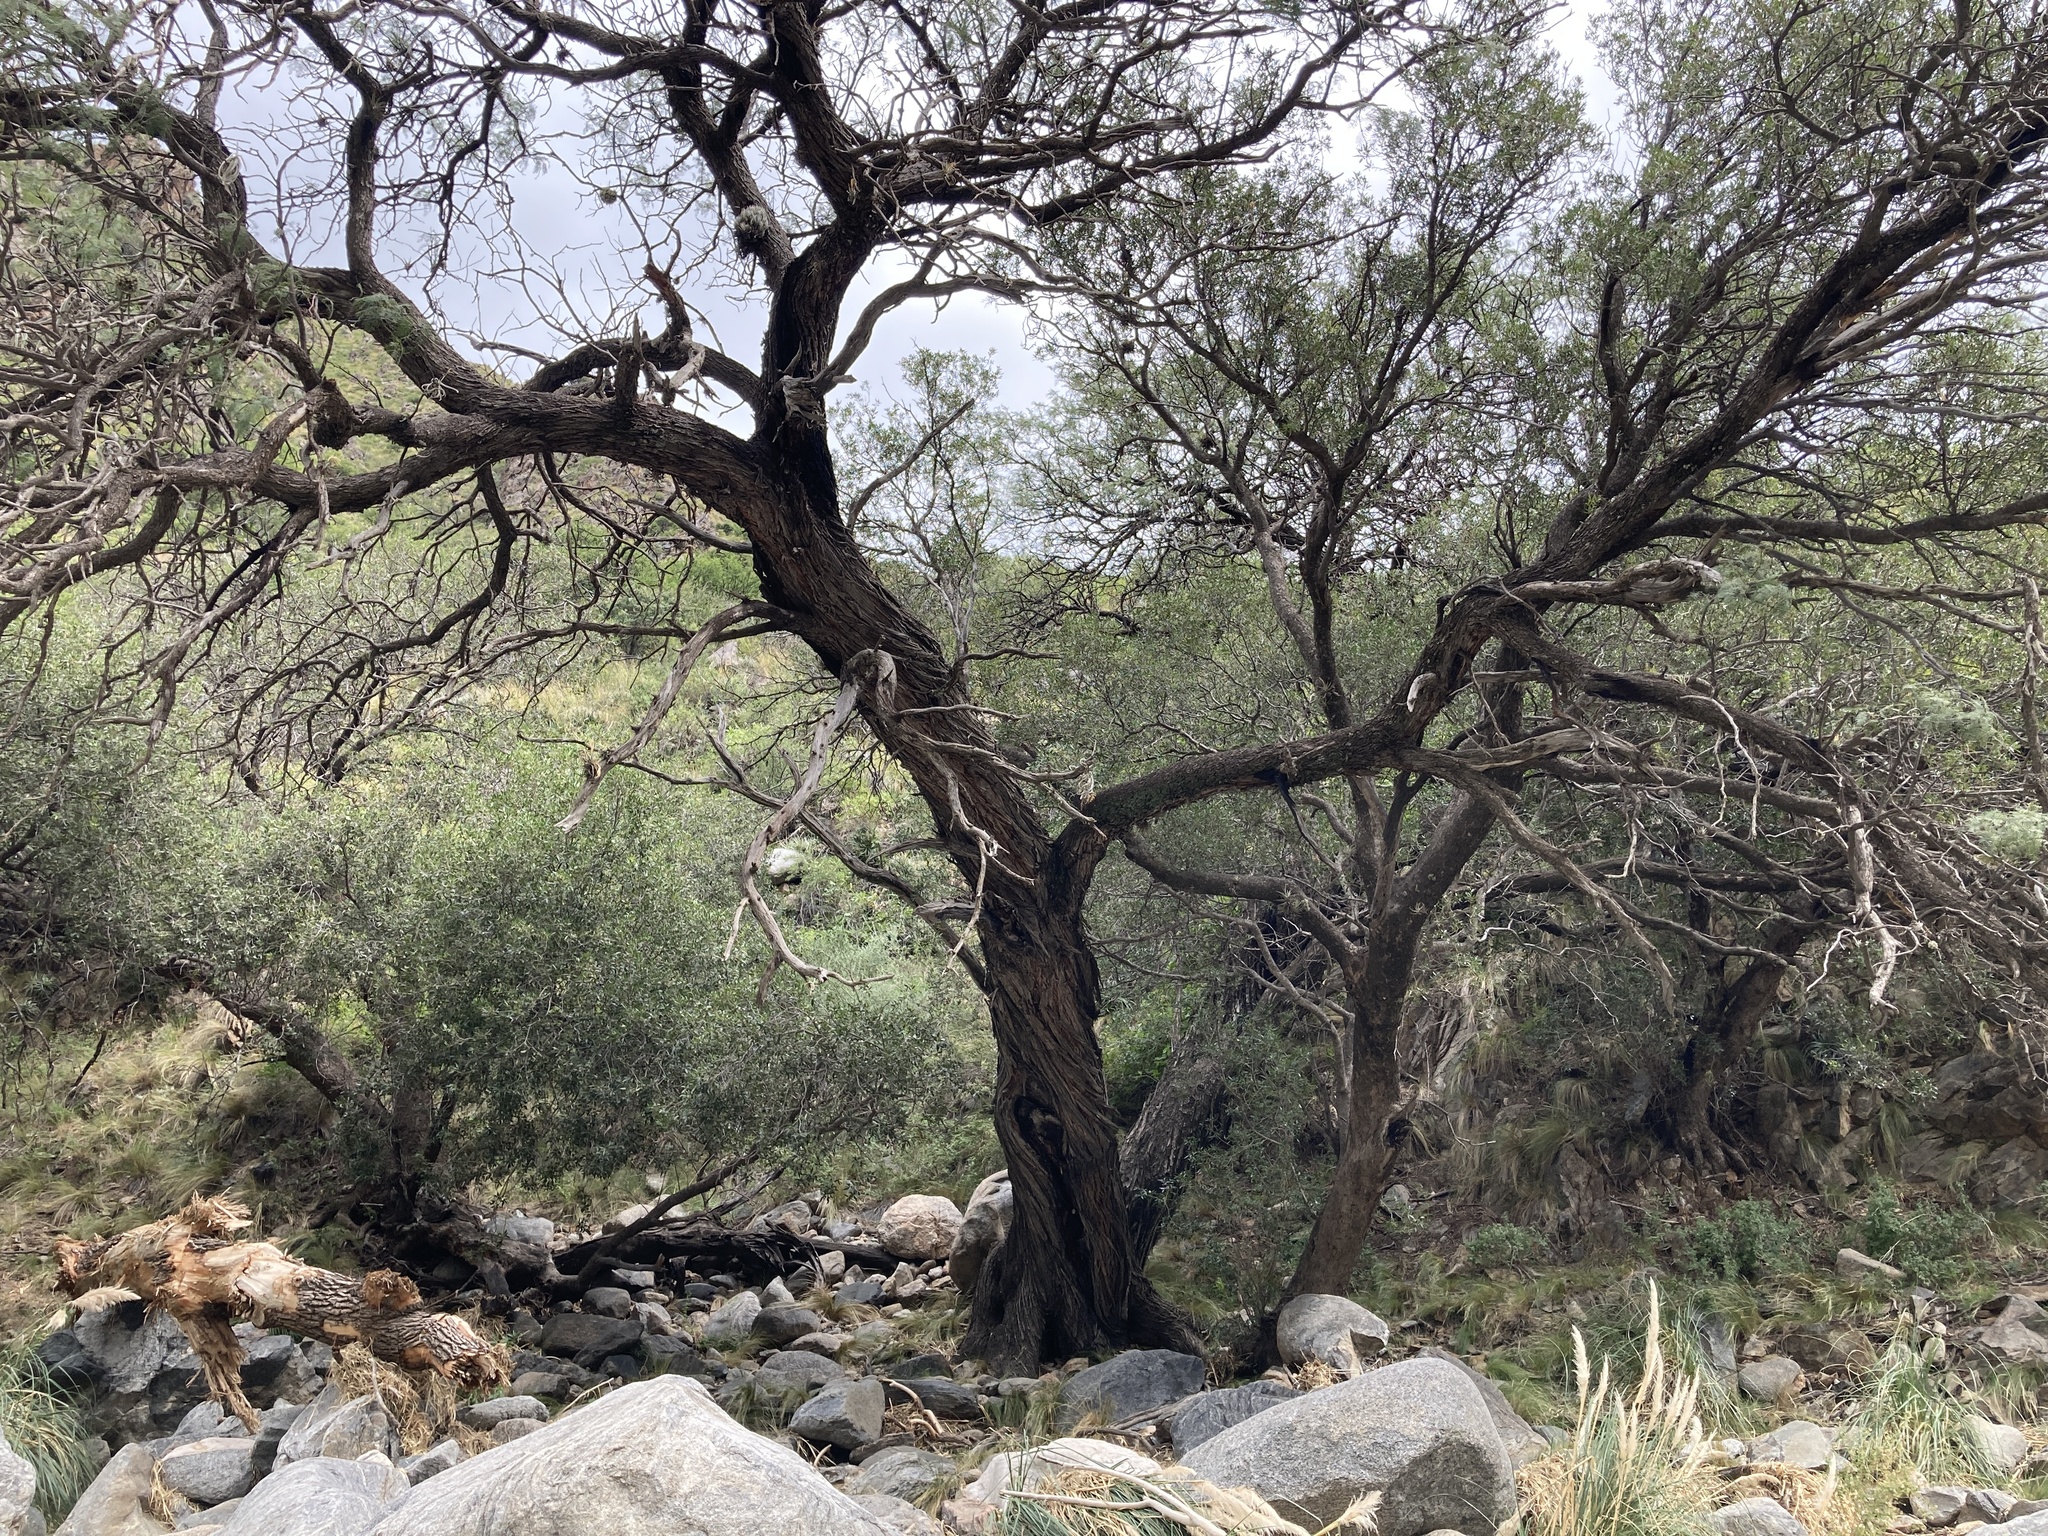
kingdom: Plantae
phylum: Tracheophyta
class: Magnoliopsida
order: Fabales
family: Fabaceae
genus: Prosopis
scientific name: Prosopis chilensis
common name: Chilean algarrobo
